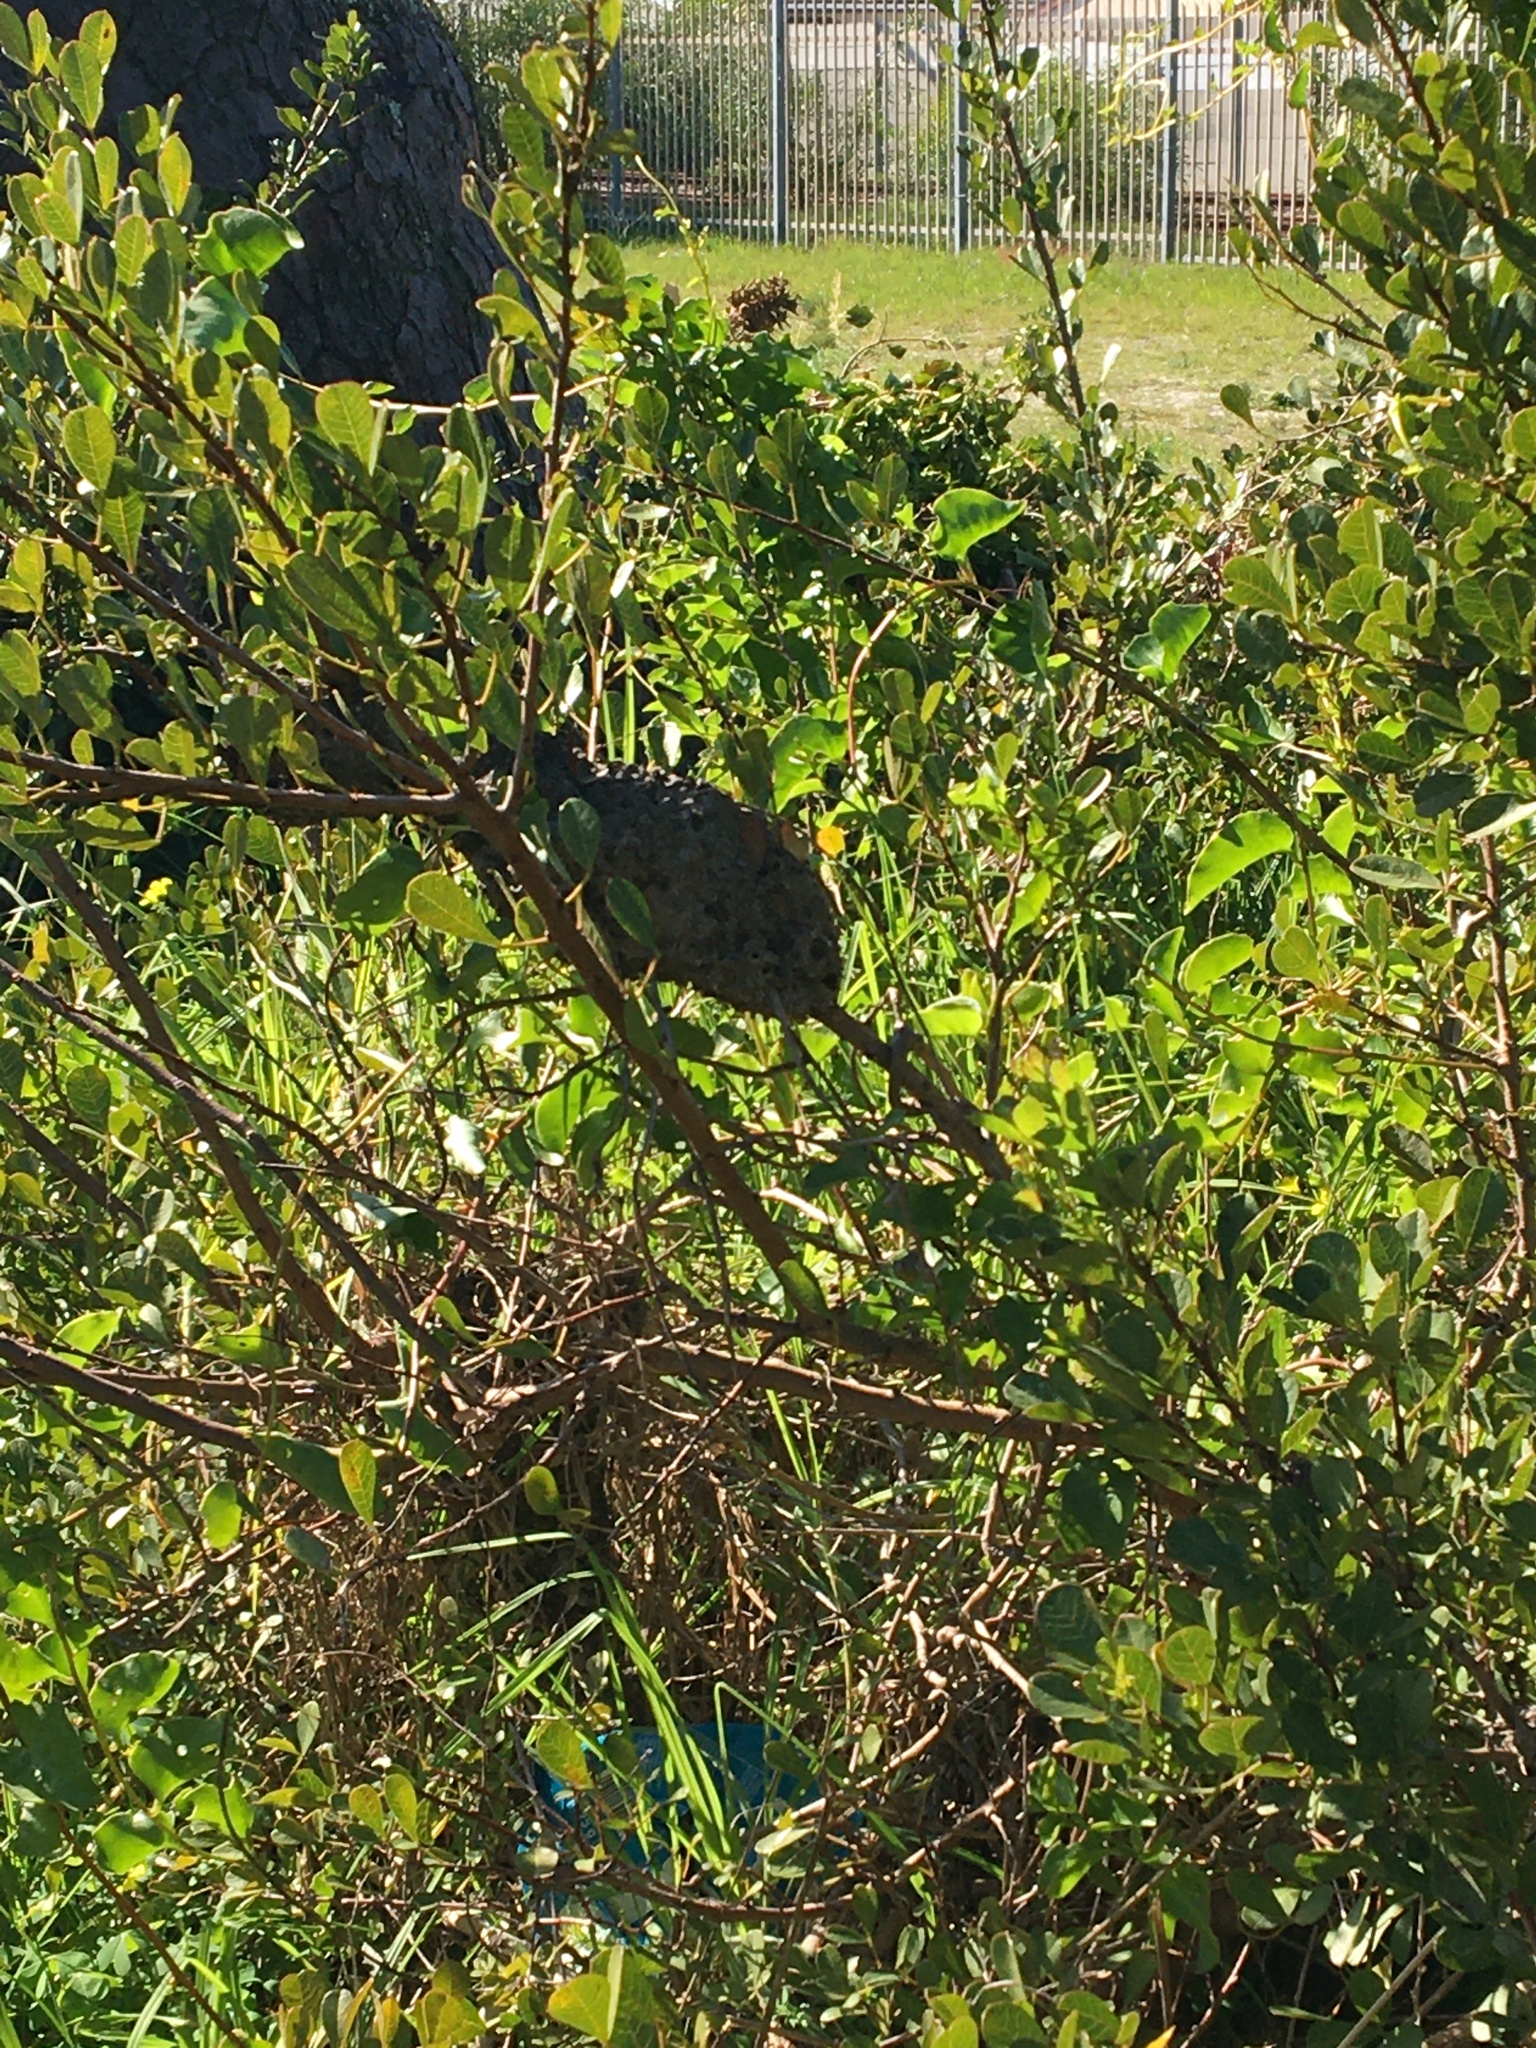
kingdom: Animalia
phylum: Arthropoda
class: Insecta
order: Hymenoptera
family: Formicidae
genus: Crematogaster
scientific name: Crematogaster peringueyi
